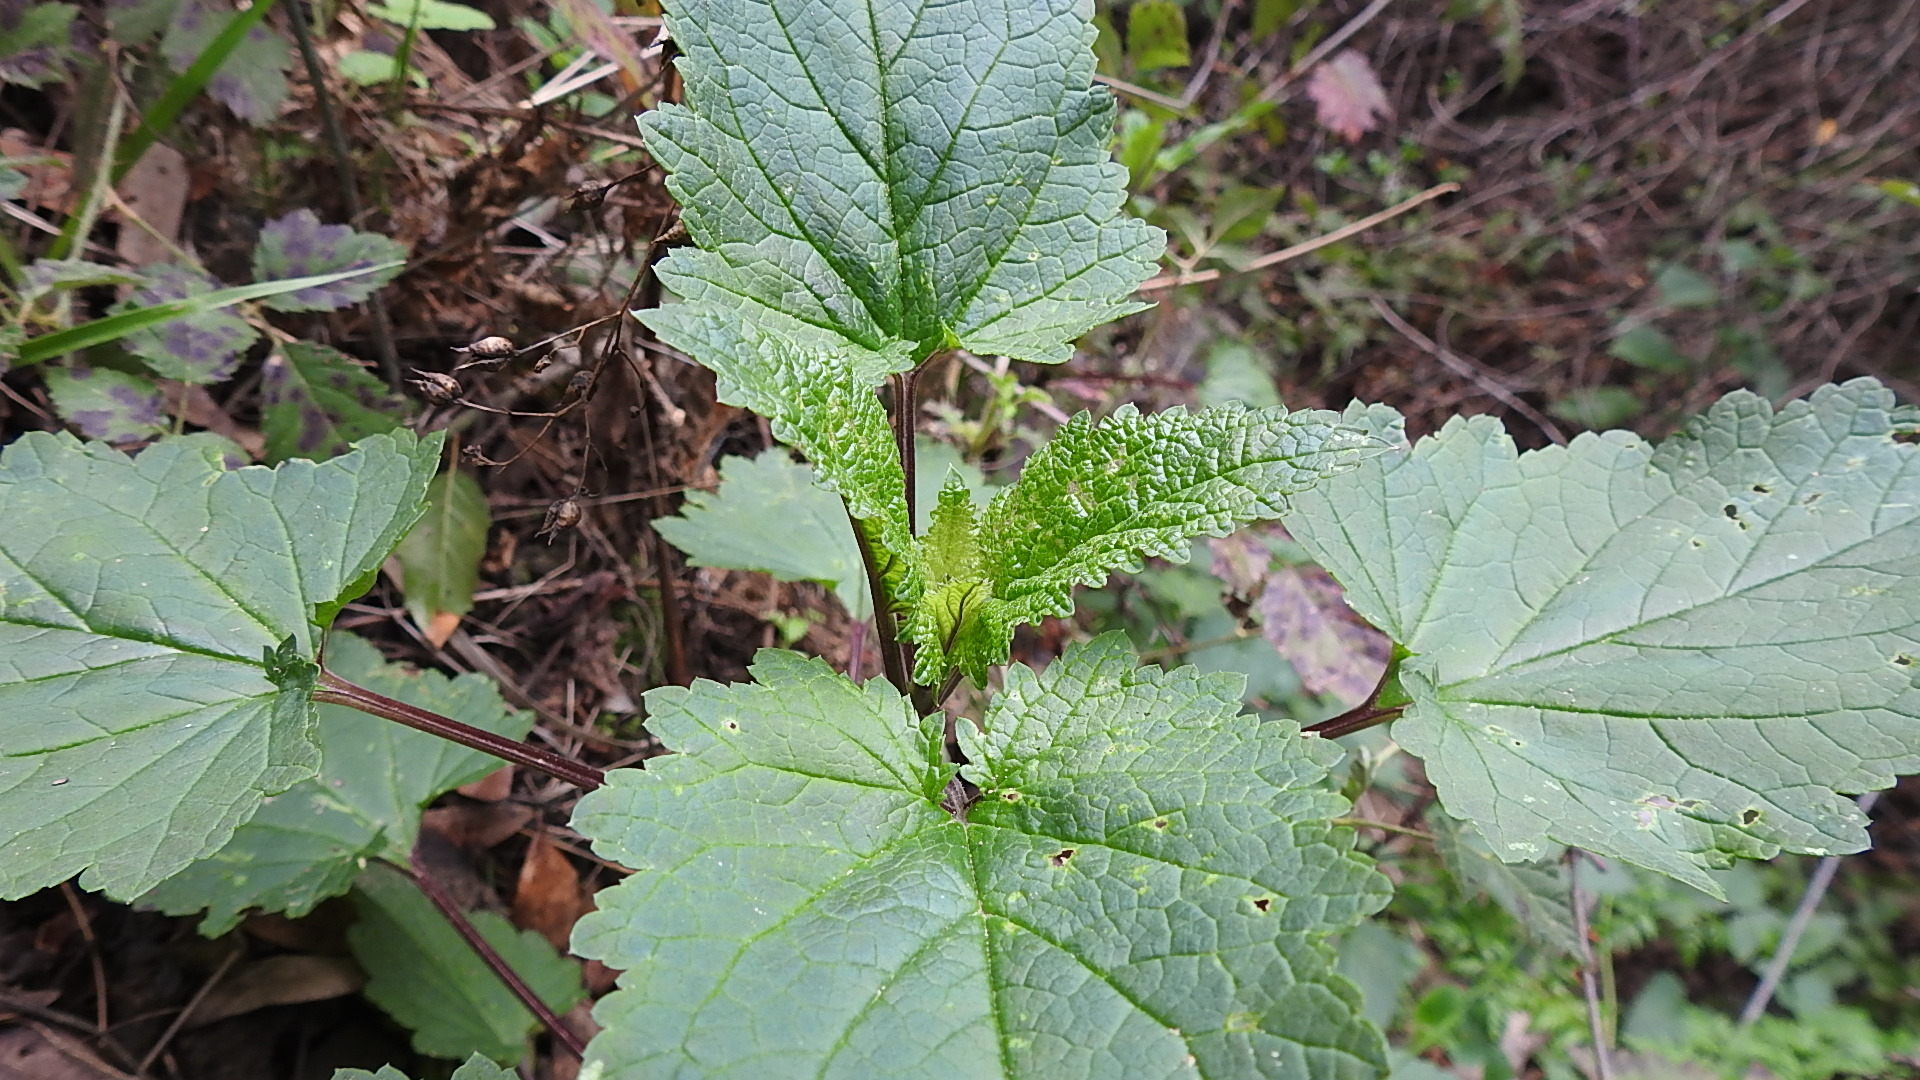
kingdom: Plantae
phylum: Tracheophyta
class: Magnoliopsida
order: Lamiales
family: Scrophulariaceae
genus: Scrophularia
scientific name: Scrophularia californica
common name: California figwort
